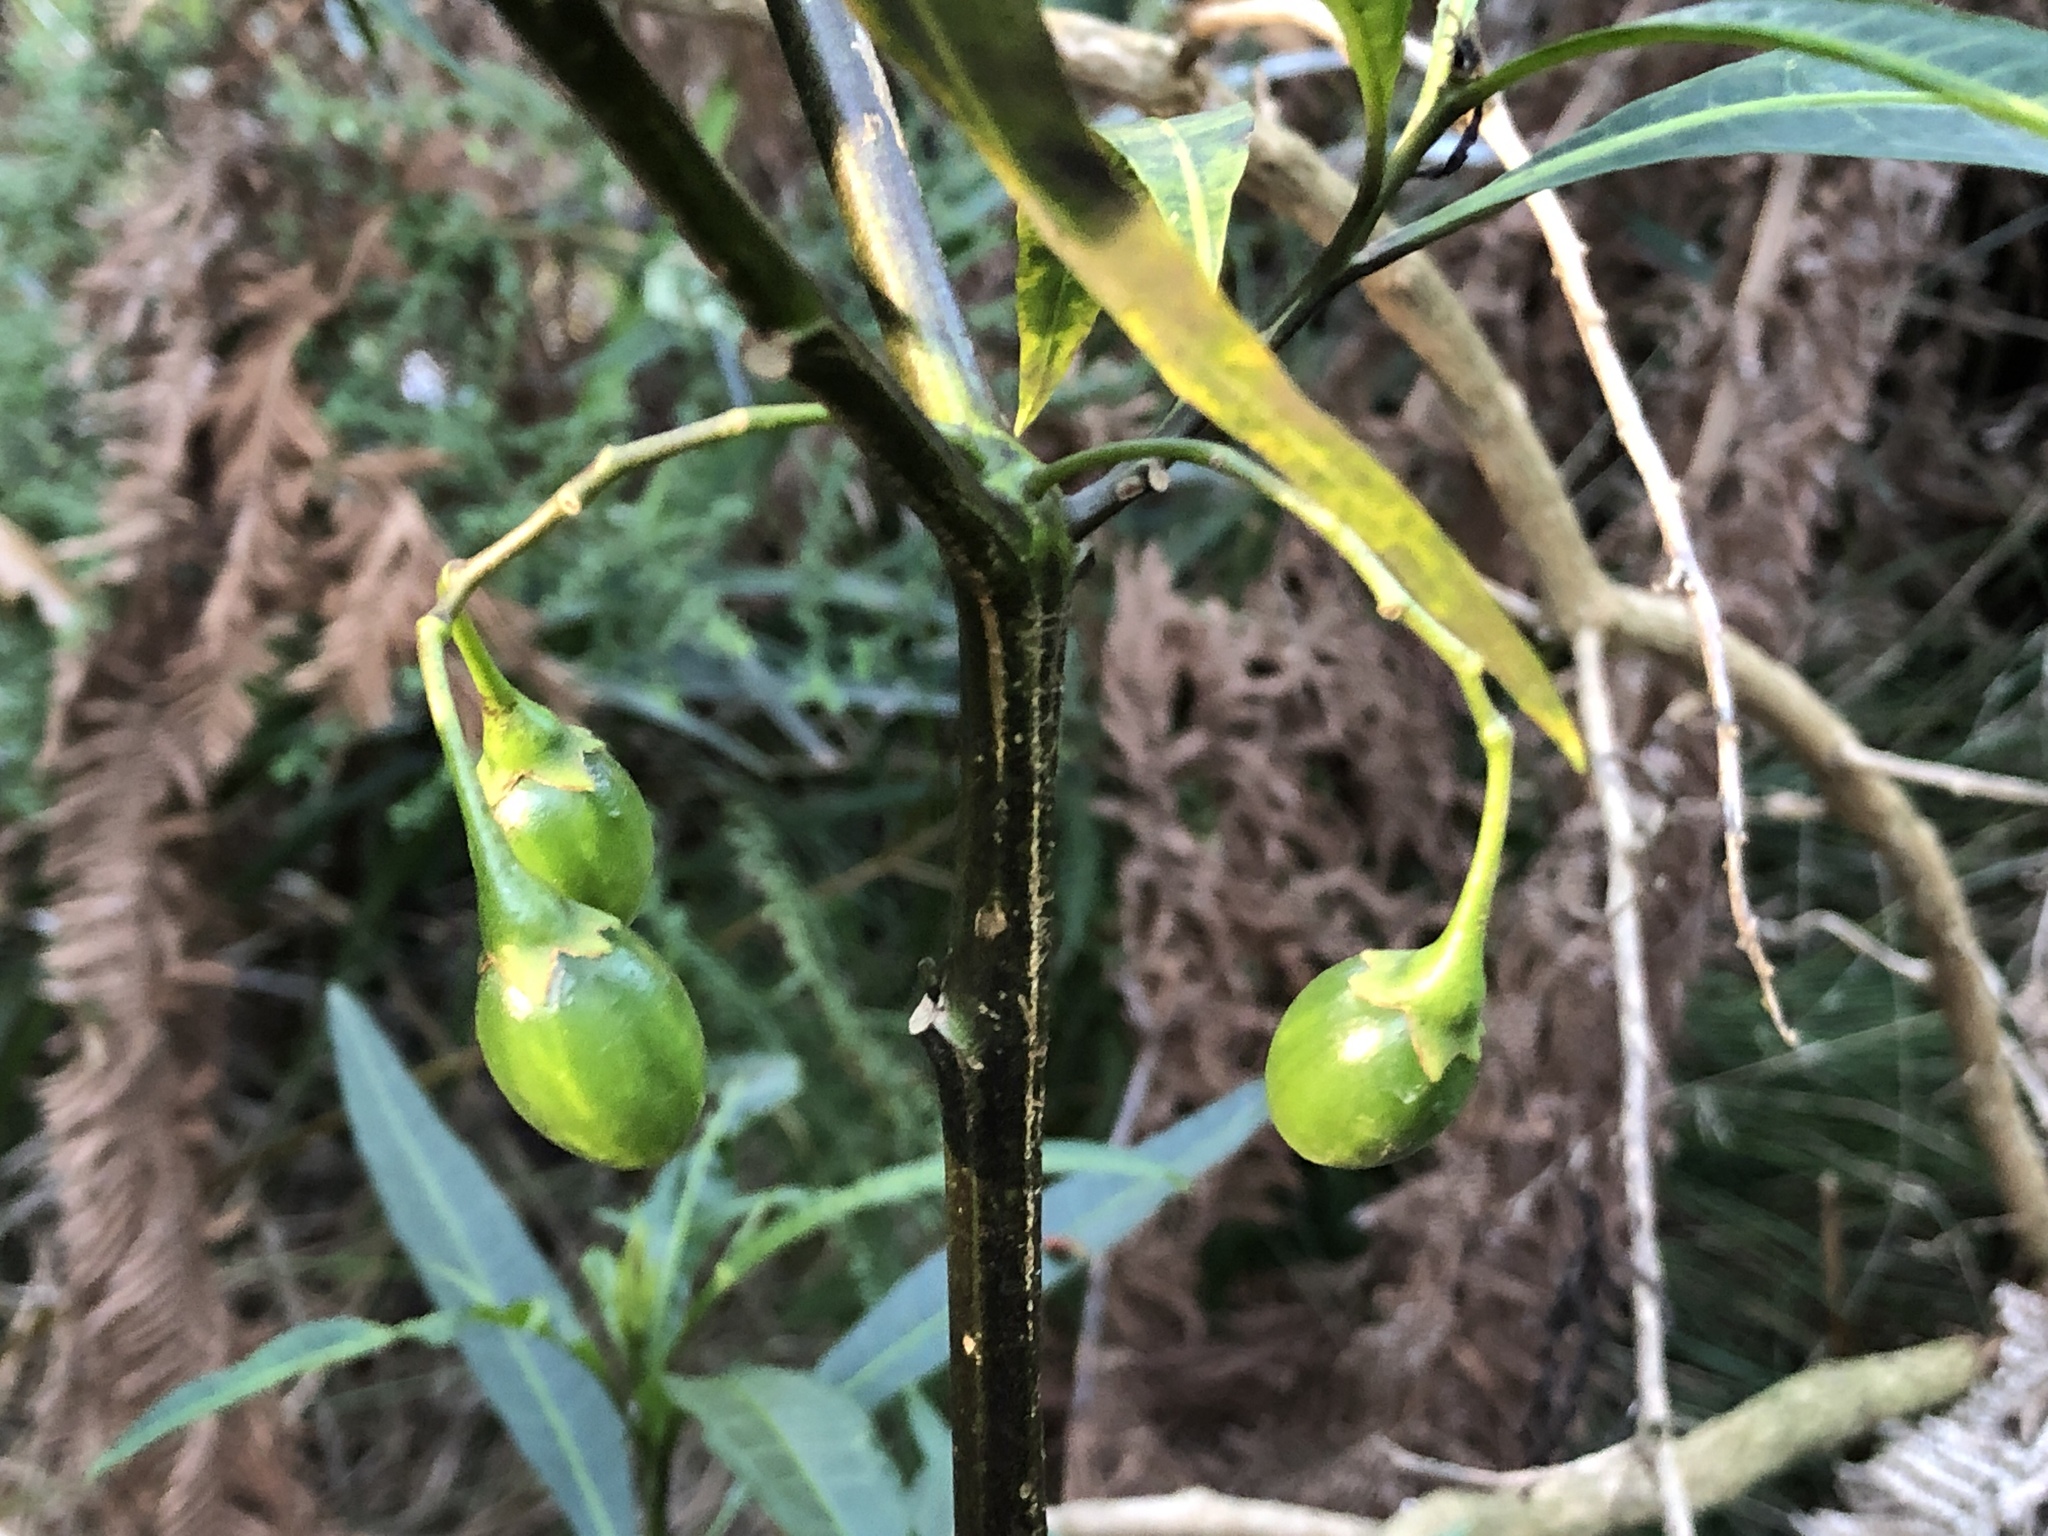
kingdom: Plantae
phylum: Tracheophyta
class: Magnoliopsida
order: Solanales
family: Solanaceae
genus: Solanum
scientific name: Solanum
